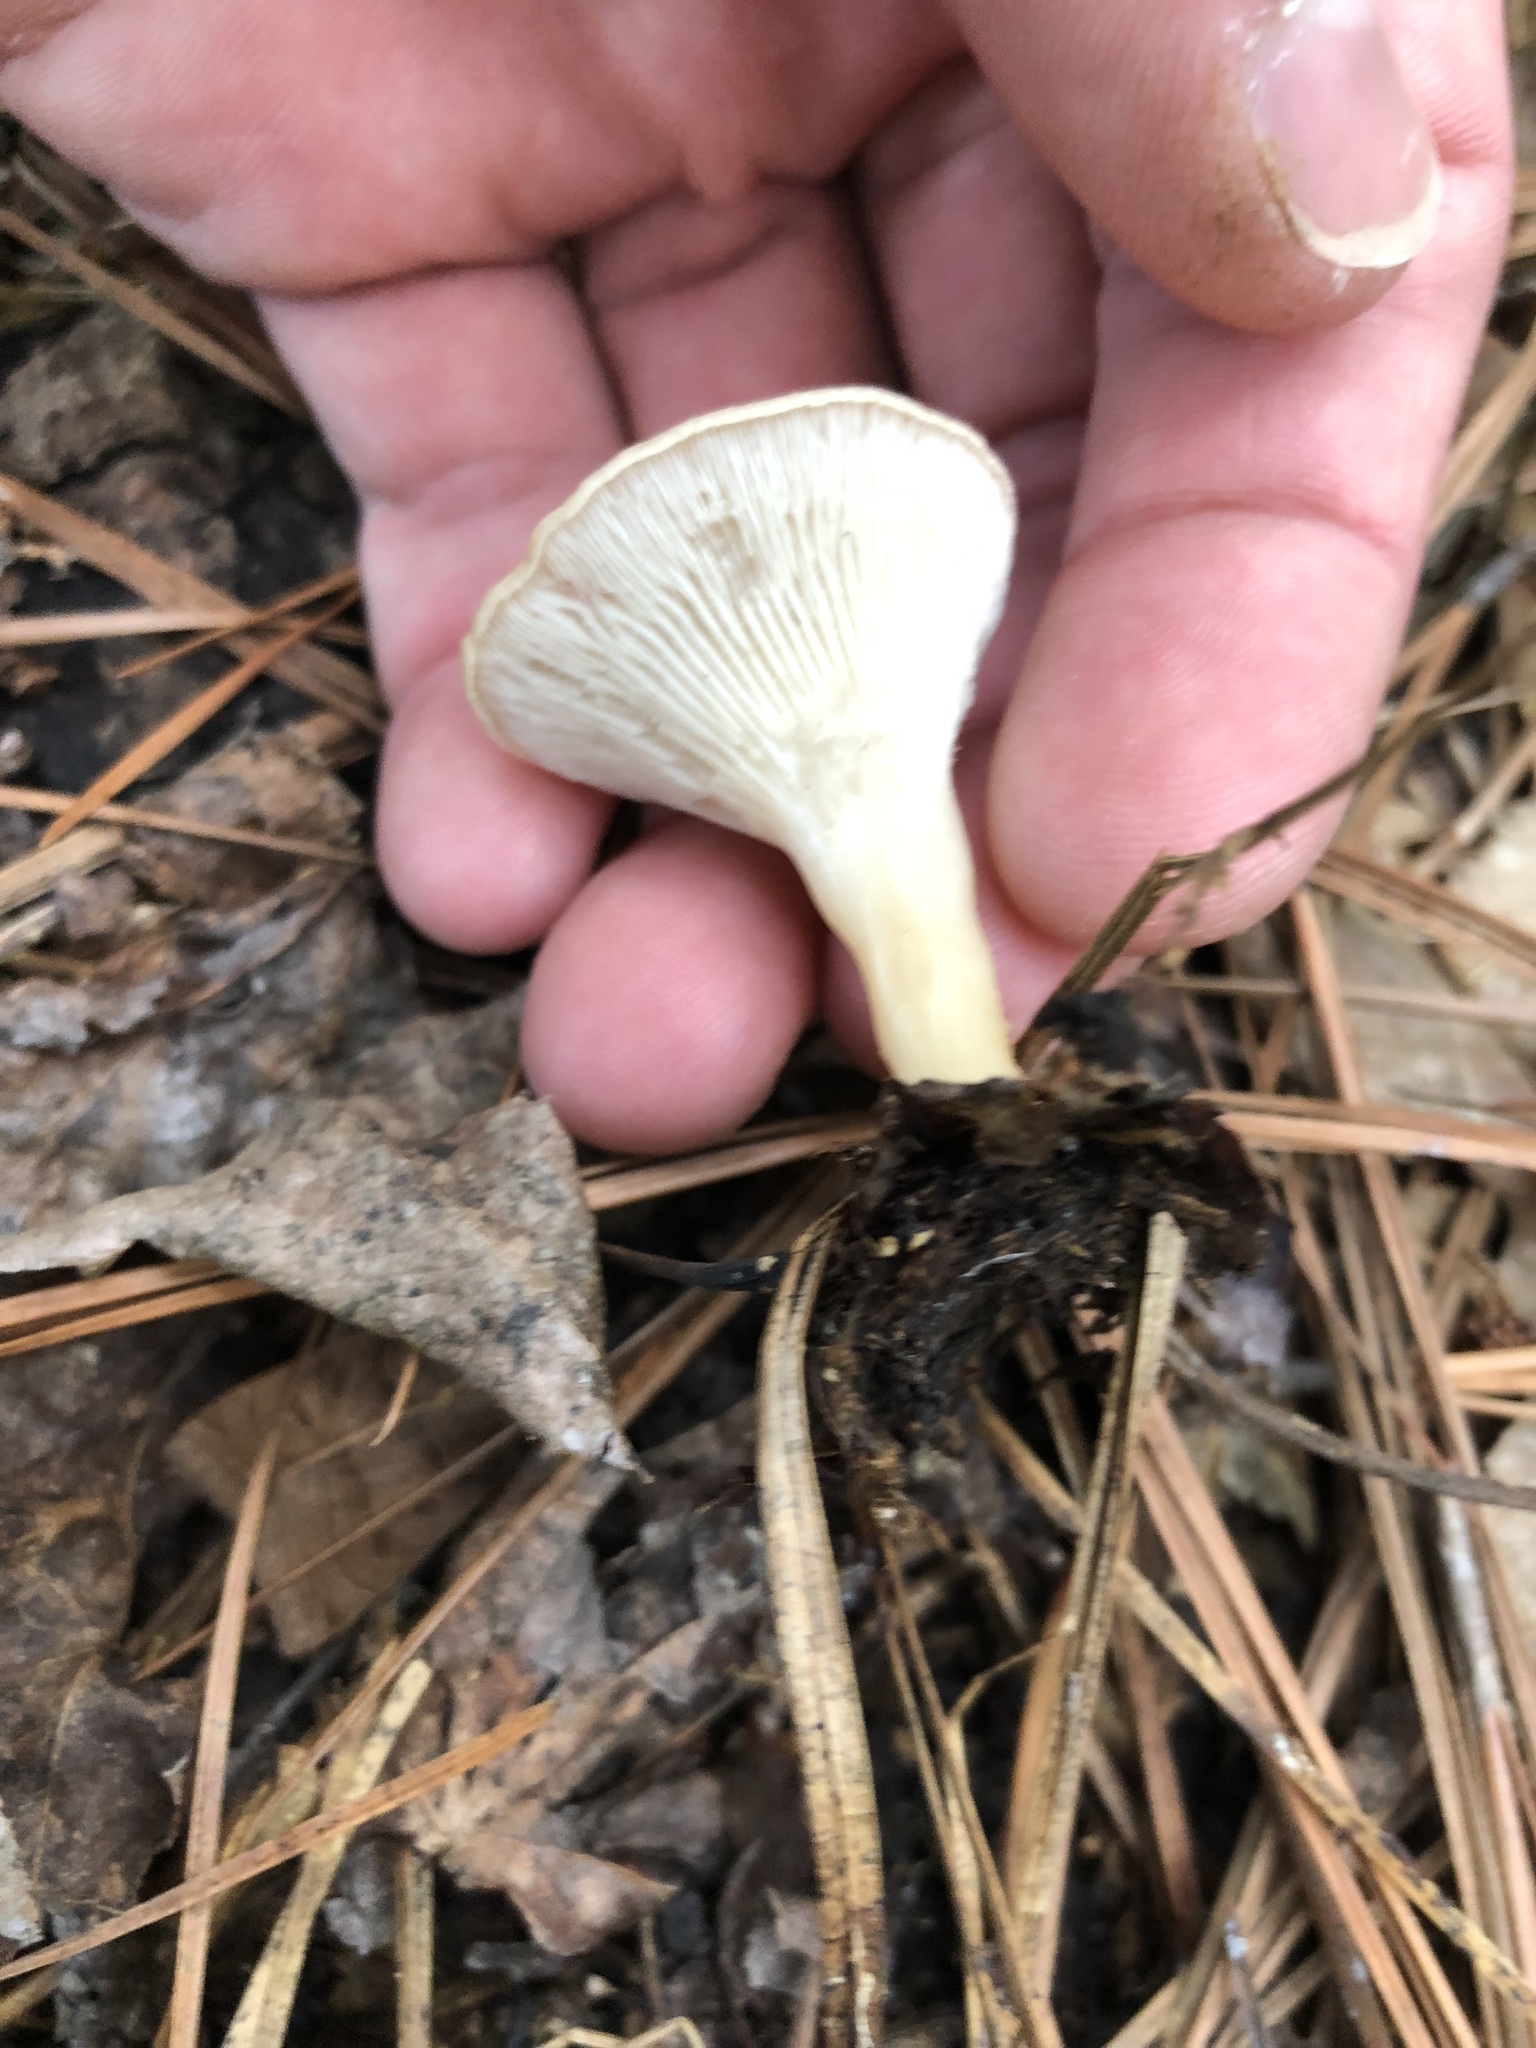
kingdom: Fungi
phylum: Basidiomycota
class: Agaricomycetes
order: Agaricales
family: Tricholomataceae
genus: Infundibulicybe
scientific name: Infundibulicybe gibba
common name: Common funnel
